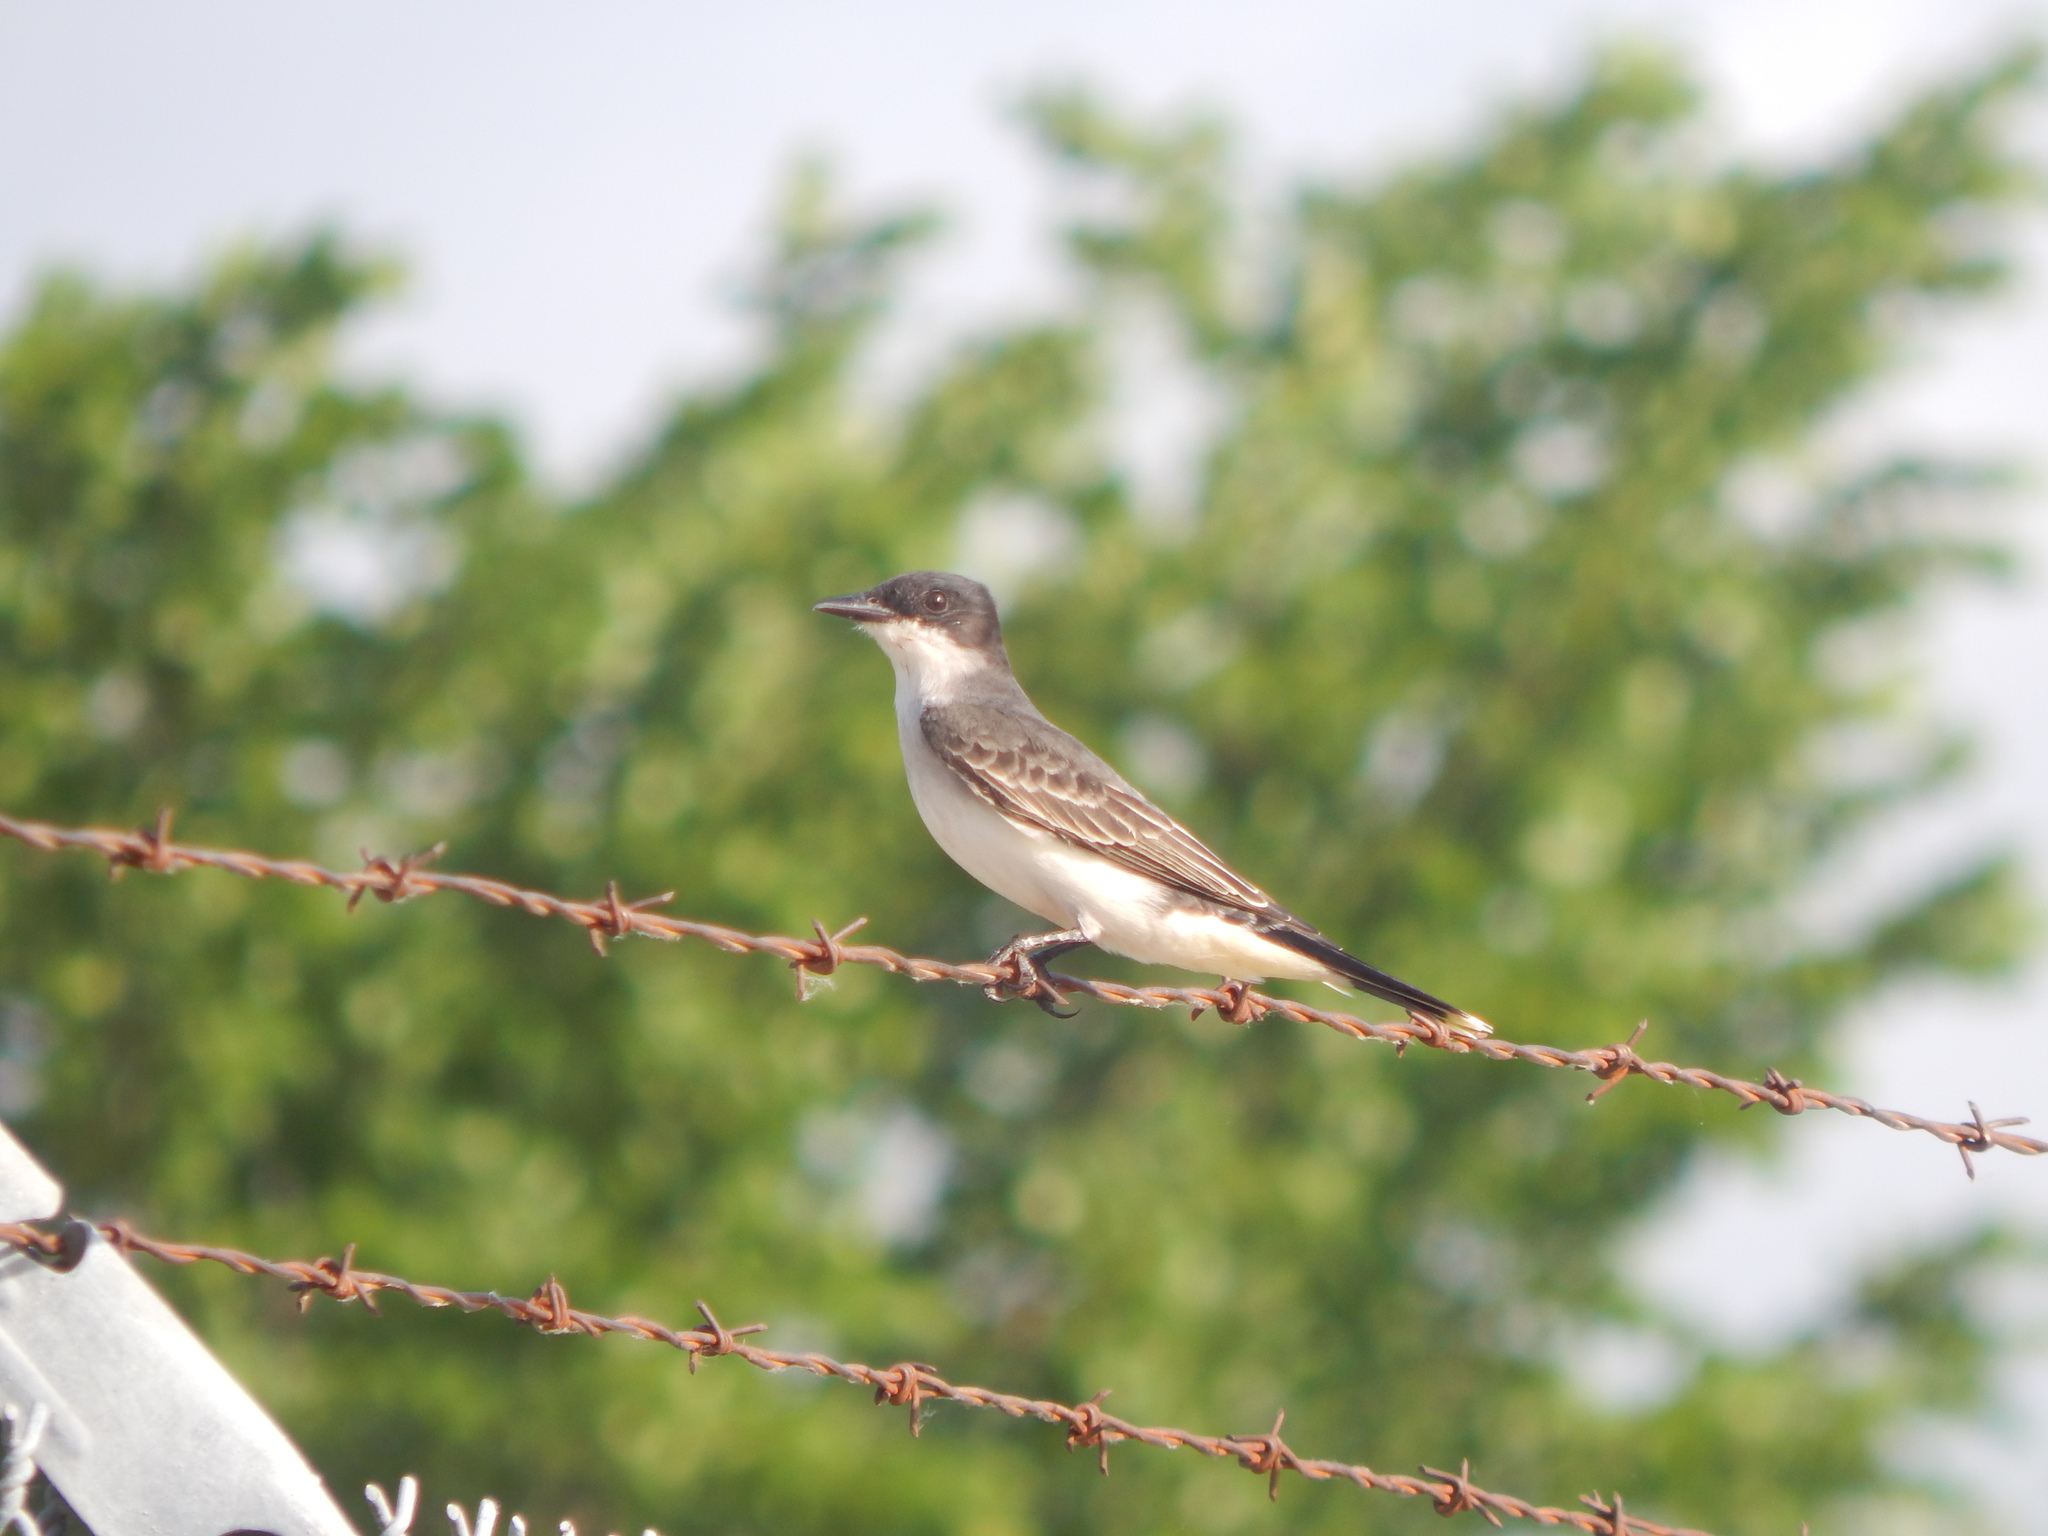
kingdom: Animalia
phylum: Chordata
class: Aves
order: Passeriformes
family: Tyrannidae
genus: Tyrannus
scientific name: Tyrannus tyrannus
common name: Eastern kingbird
